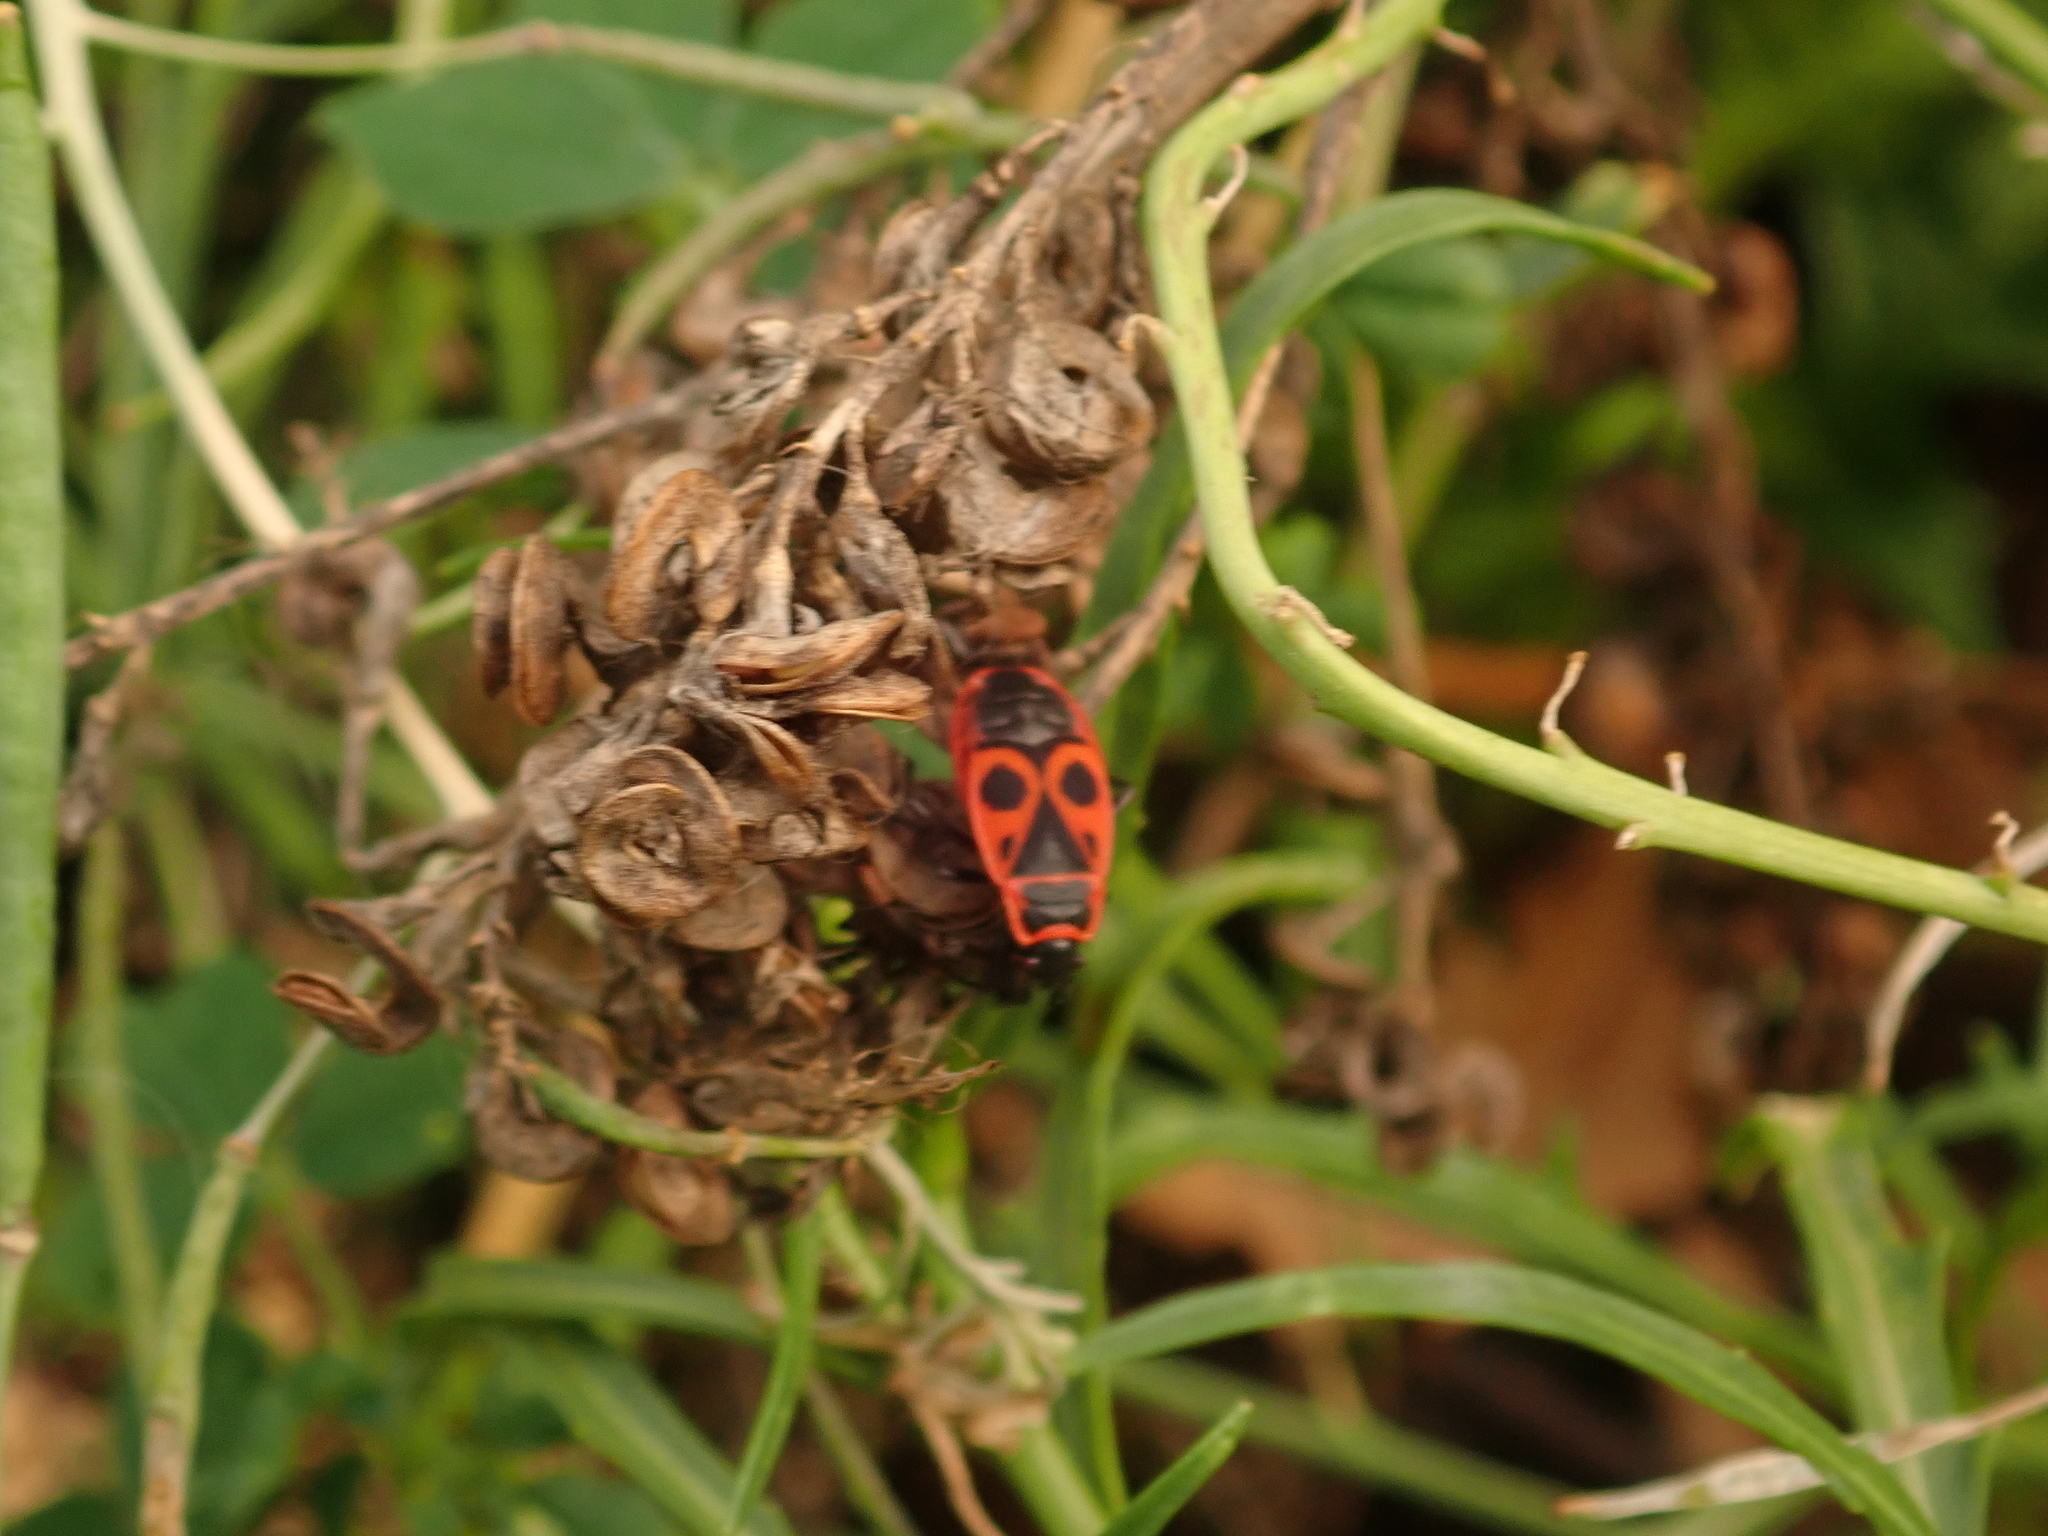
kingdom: Animalia
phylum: Arthropoda
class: Insecta
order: Hemiptera
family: Pyrrhocoridae
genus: Pyrrhocoris
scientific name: Pyrrhocoris apterus
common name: Firebug
